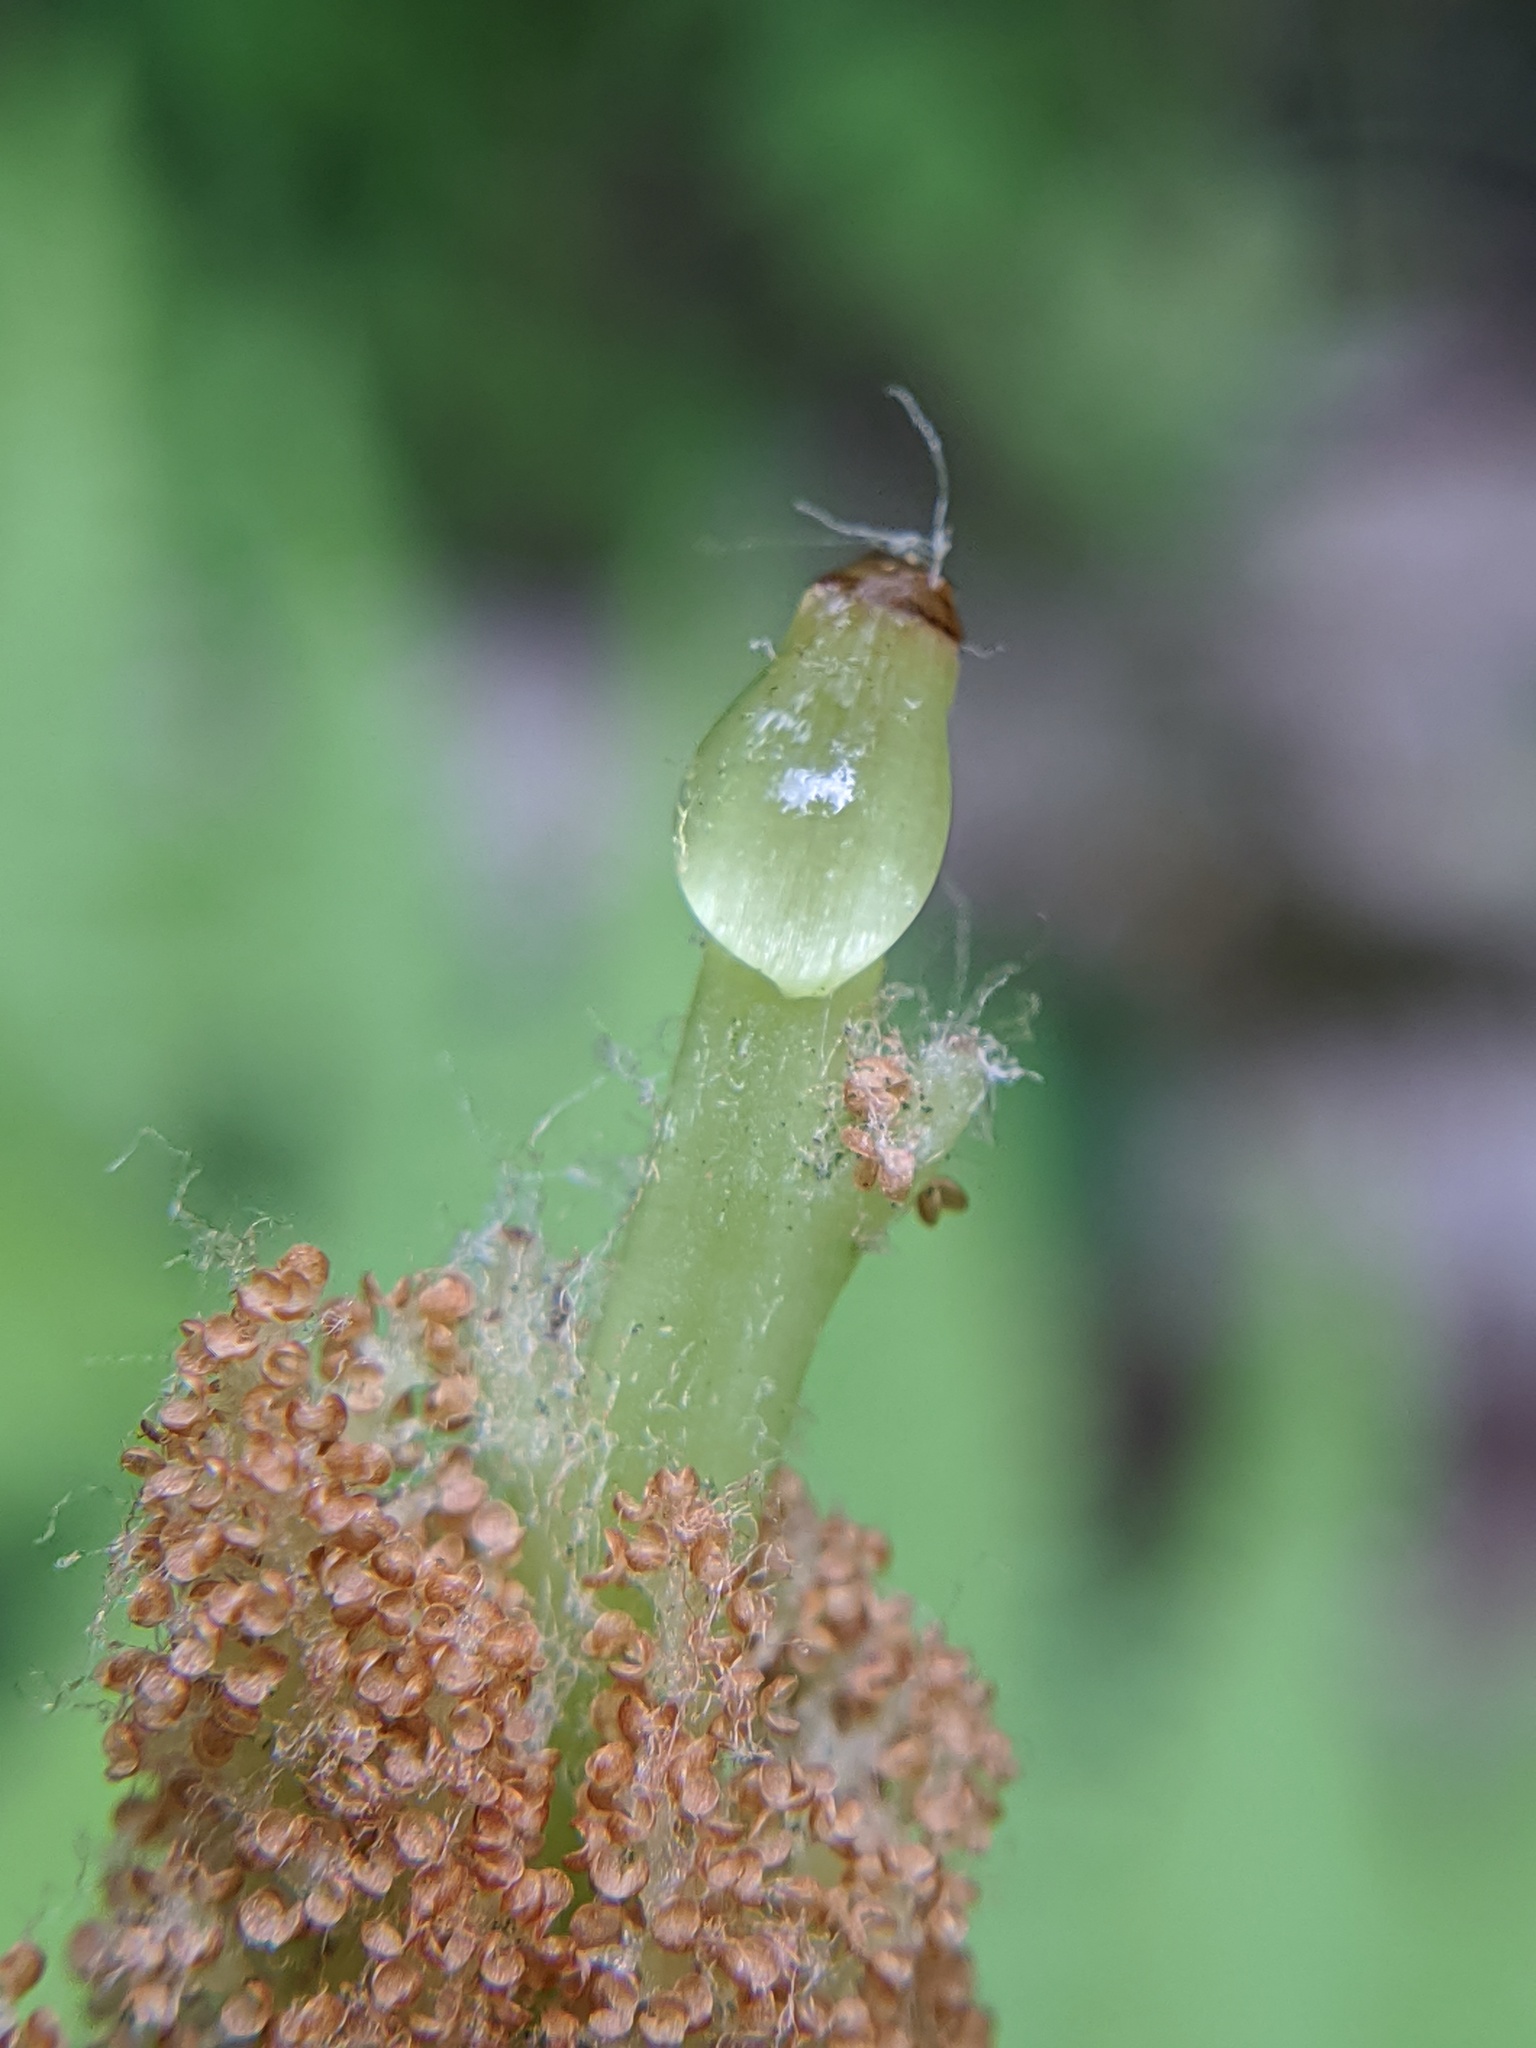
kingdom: Plantae
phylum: Tracheophyta
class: Polypodiopsida
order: Osmundales
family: Osmundaceae
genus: Osmundastrum
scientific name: Osmundastrum cinnamomeum
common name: Cinnamon fern
